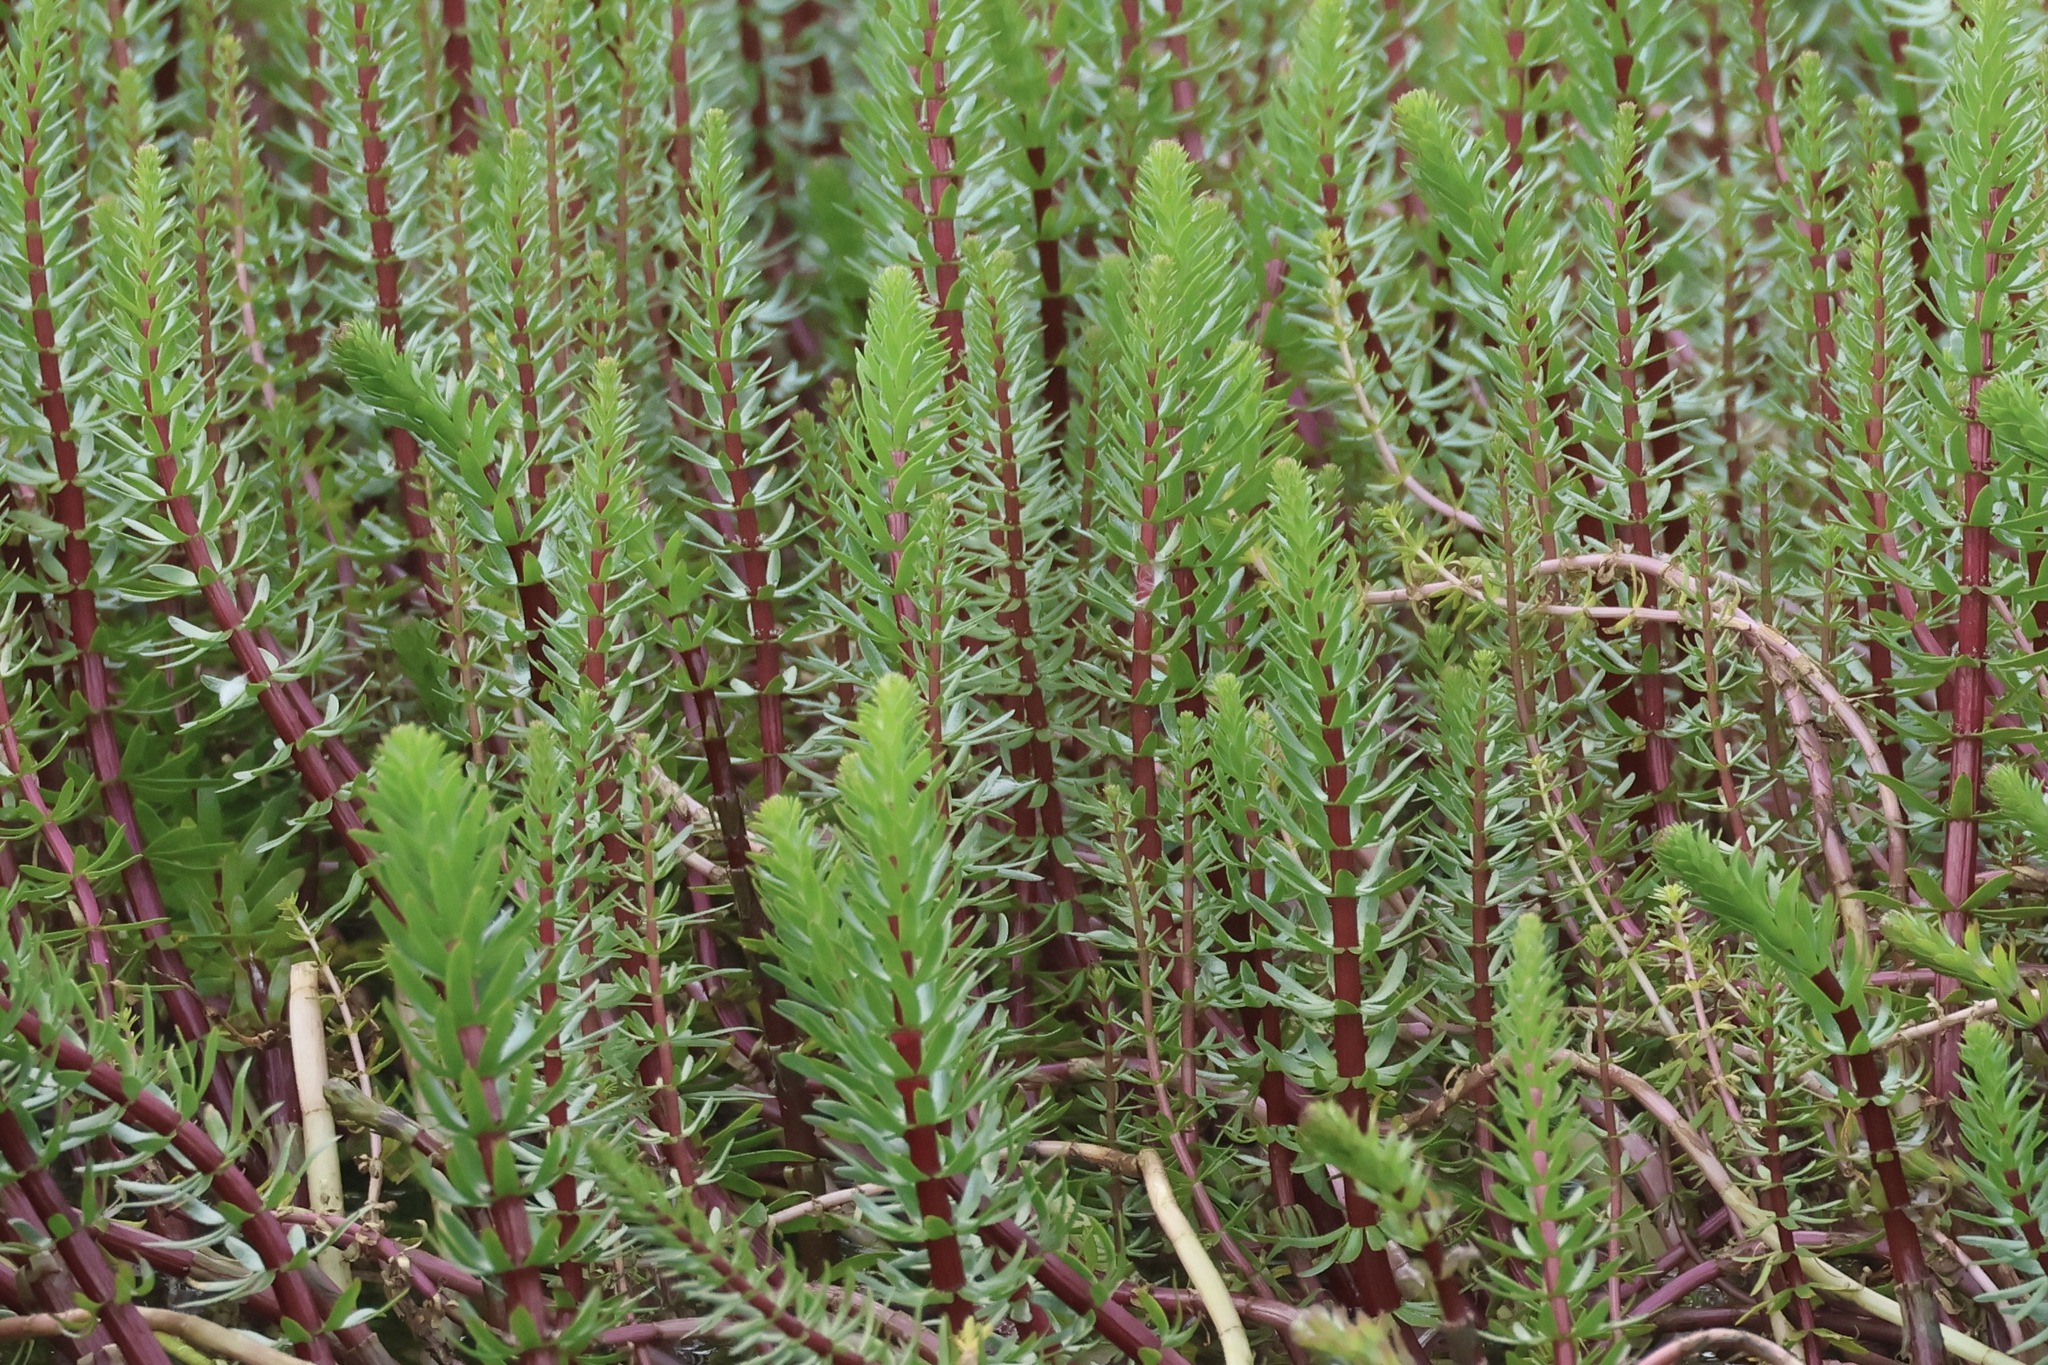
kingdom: Plantae
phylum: Tracheophyta
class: Magnoliopsida
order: Lamiales
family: Plantaginaceae
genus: Hippuris
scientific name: Hippuris vulgaris
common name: Mare's-tail
